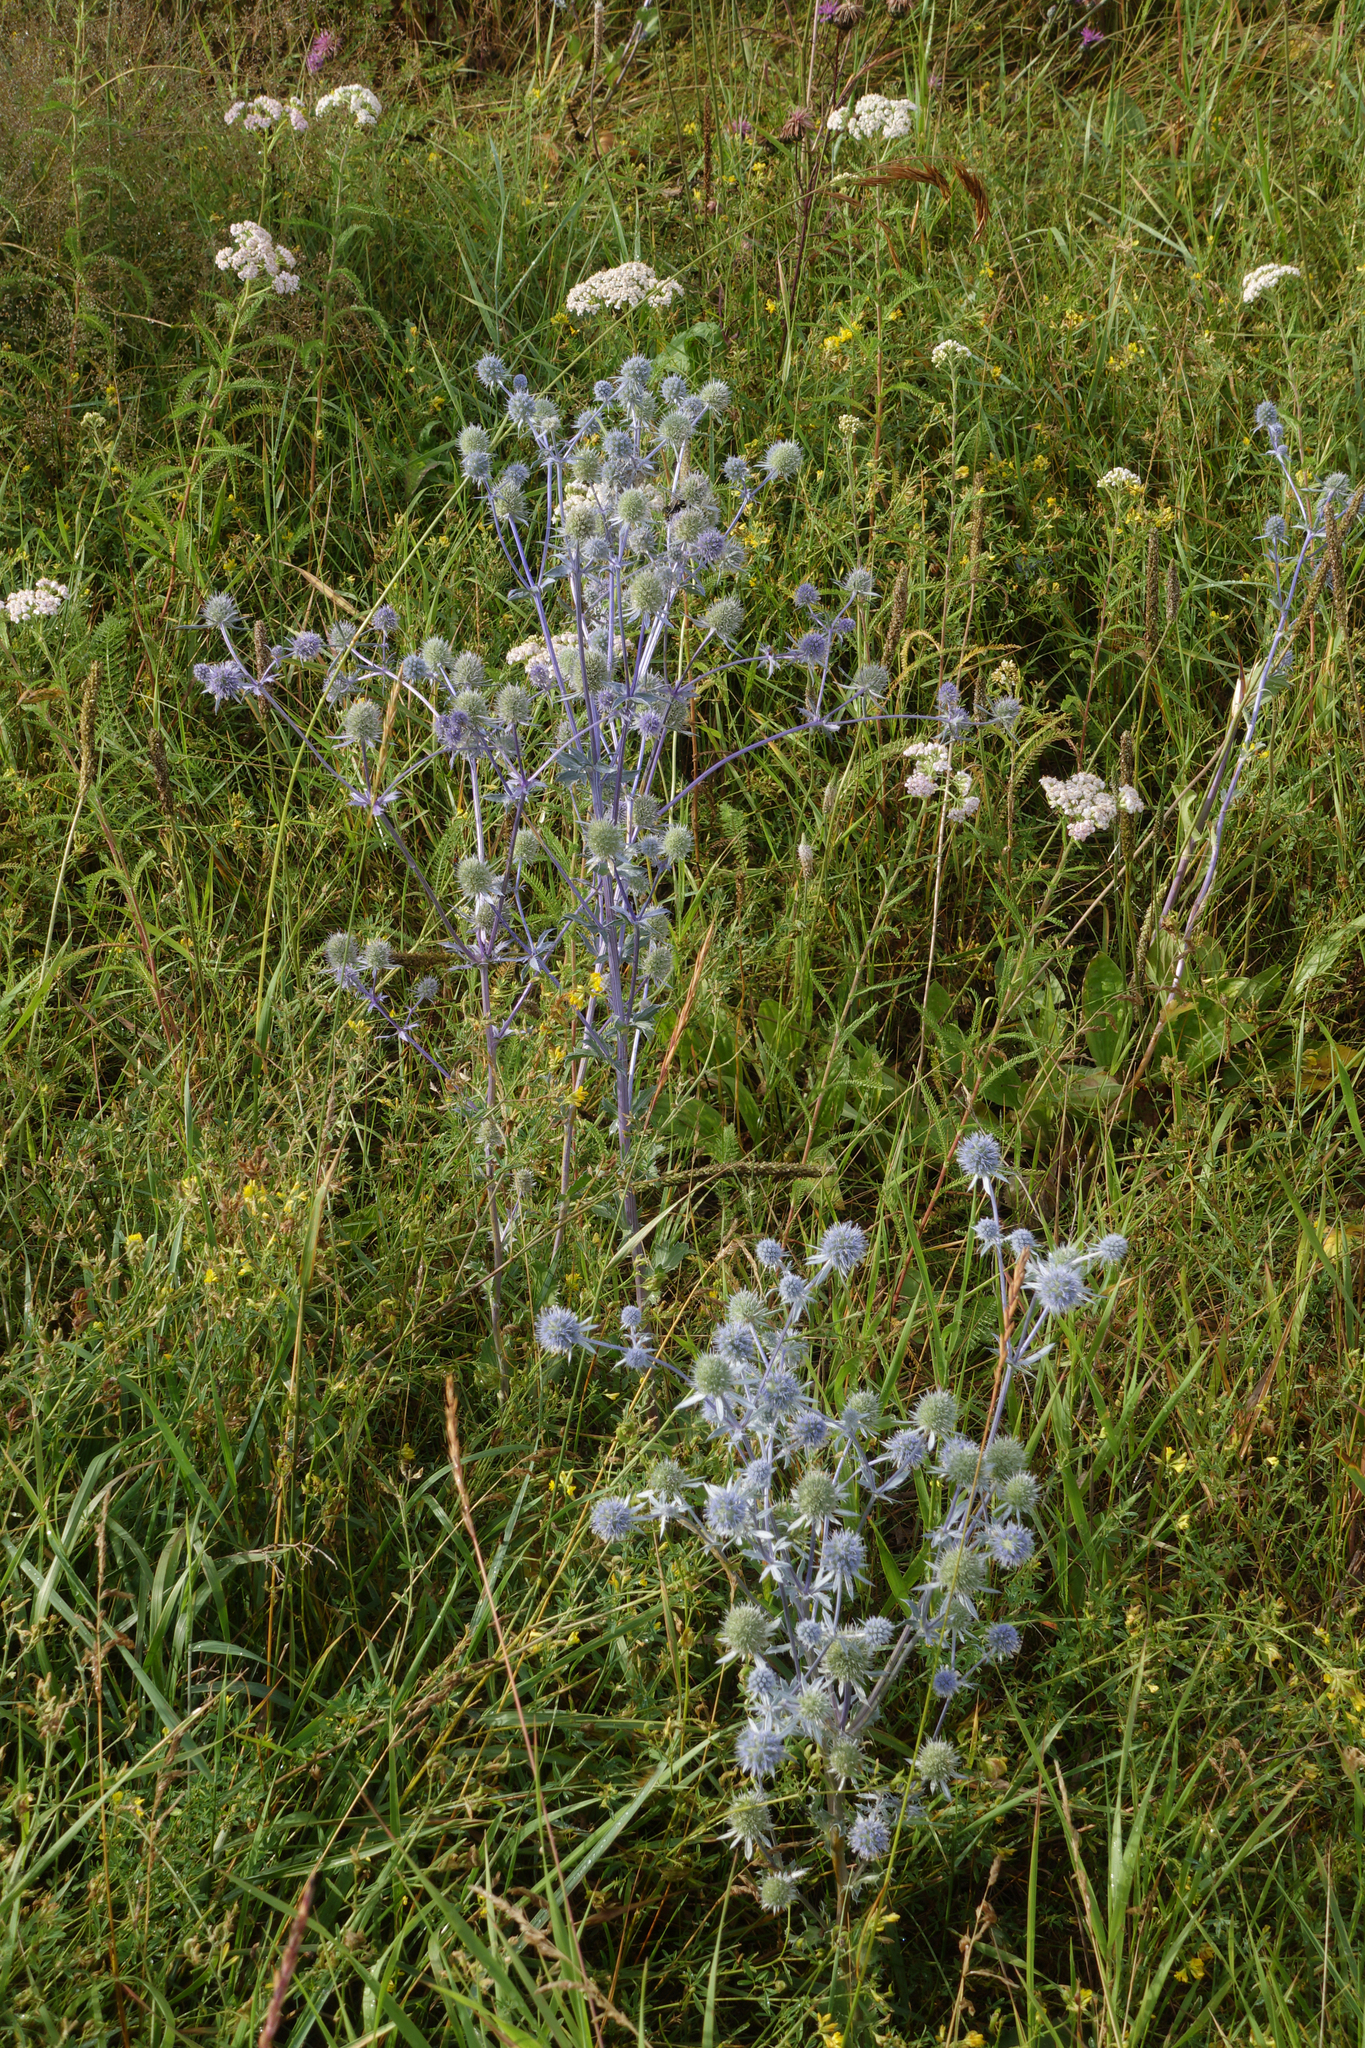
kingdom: Plantae
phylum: Tracheophyta
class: Magnoliopsida
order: Apiales
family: Apiaceae
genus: Eryngium
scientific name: Eryngium planum
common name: Blue eryngo
